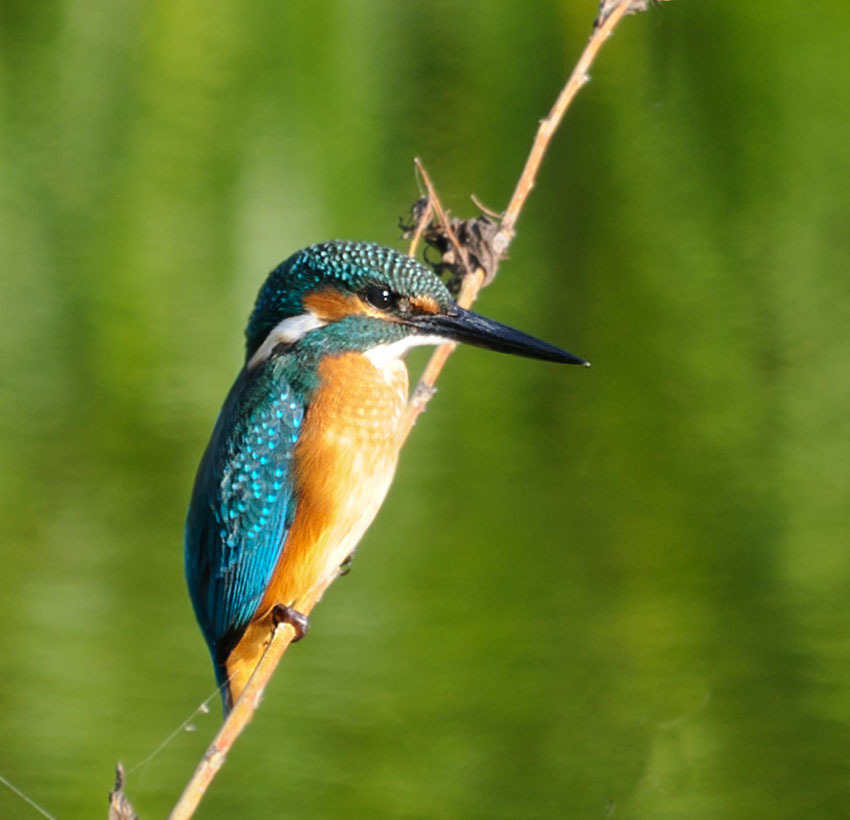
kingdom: Animalia
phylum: Chordata
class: Aves
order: Coraciiformes
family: Alcedinidae
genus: Alcedo
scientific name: Alcedo atthis
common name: Common kingfisher
